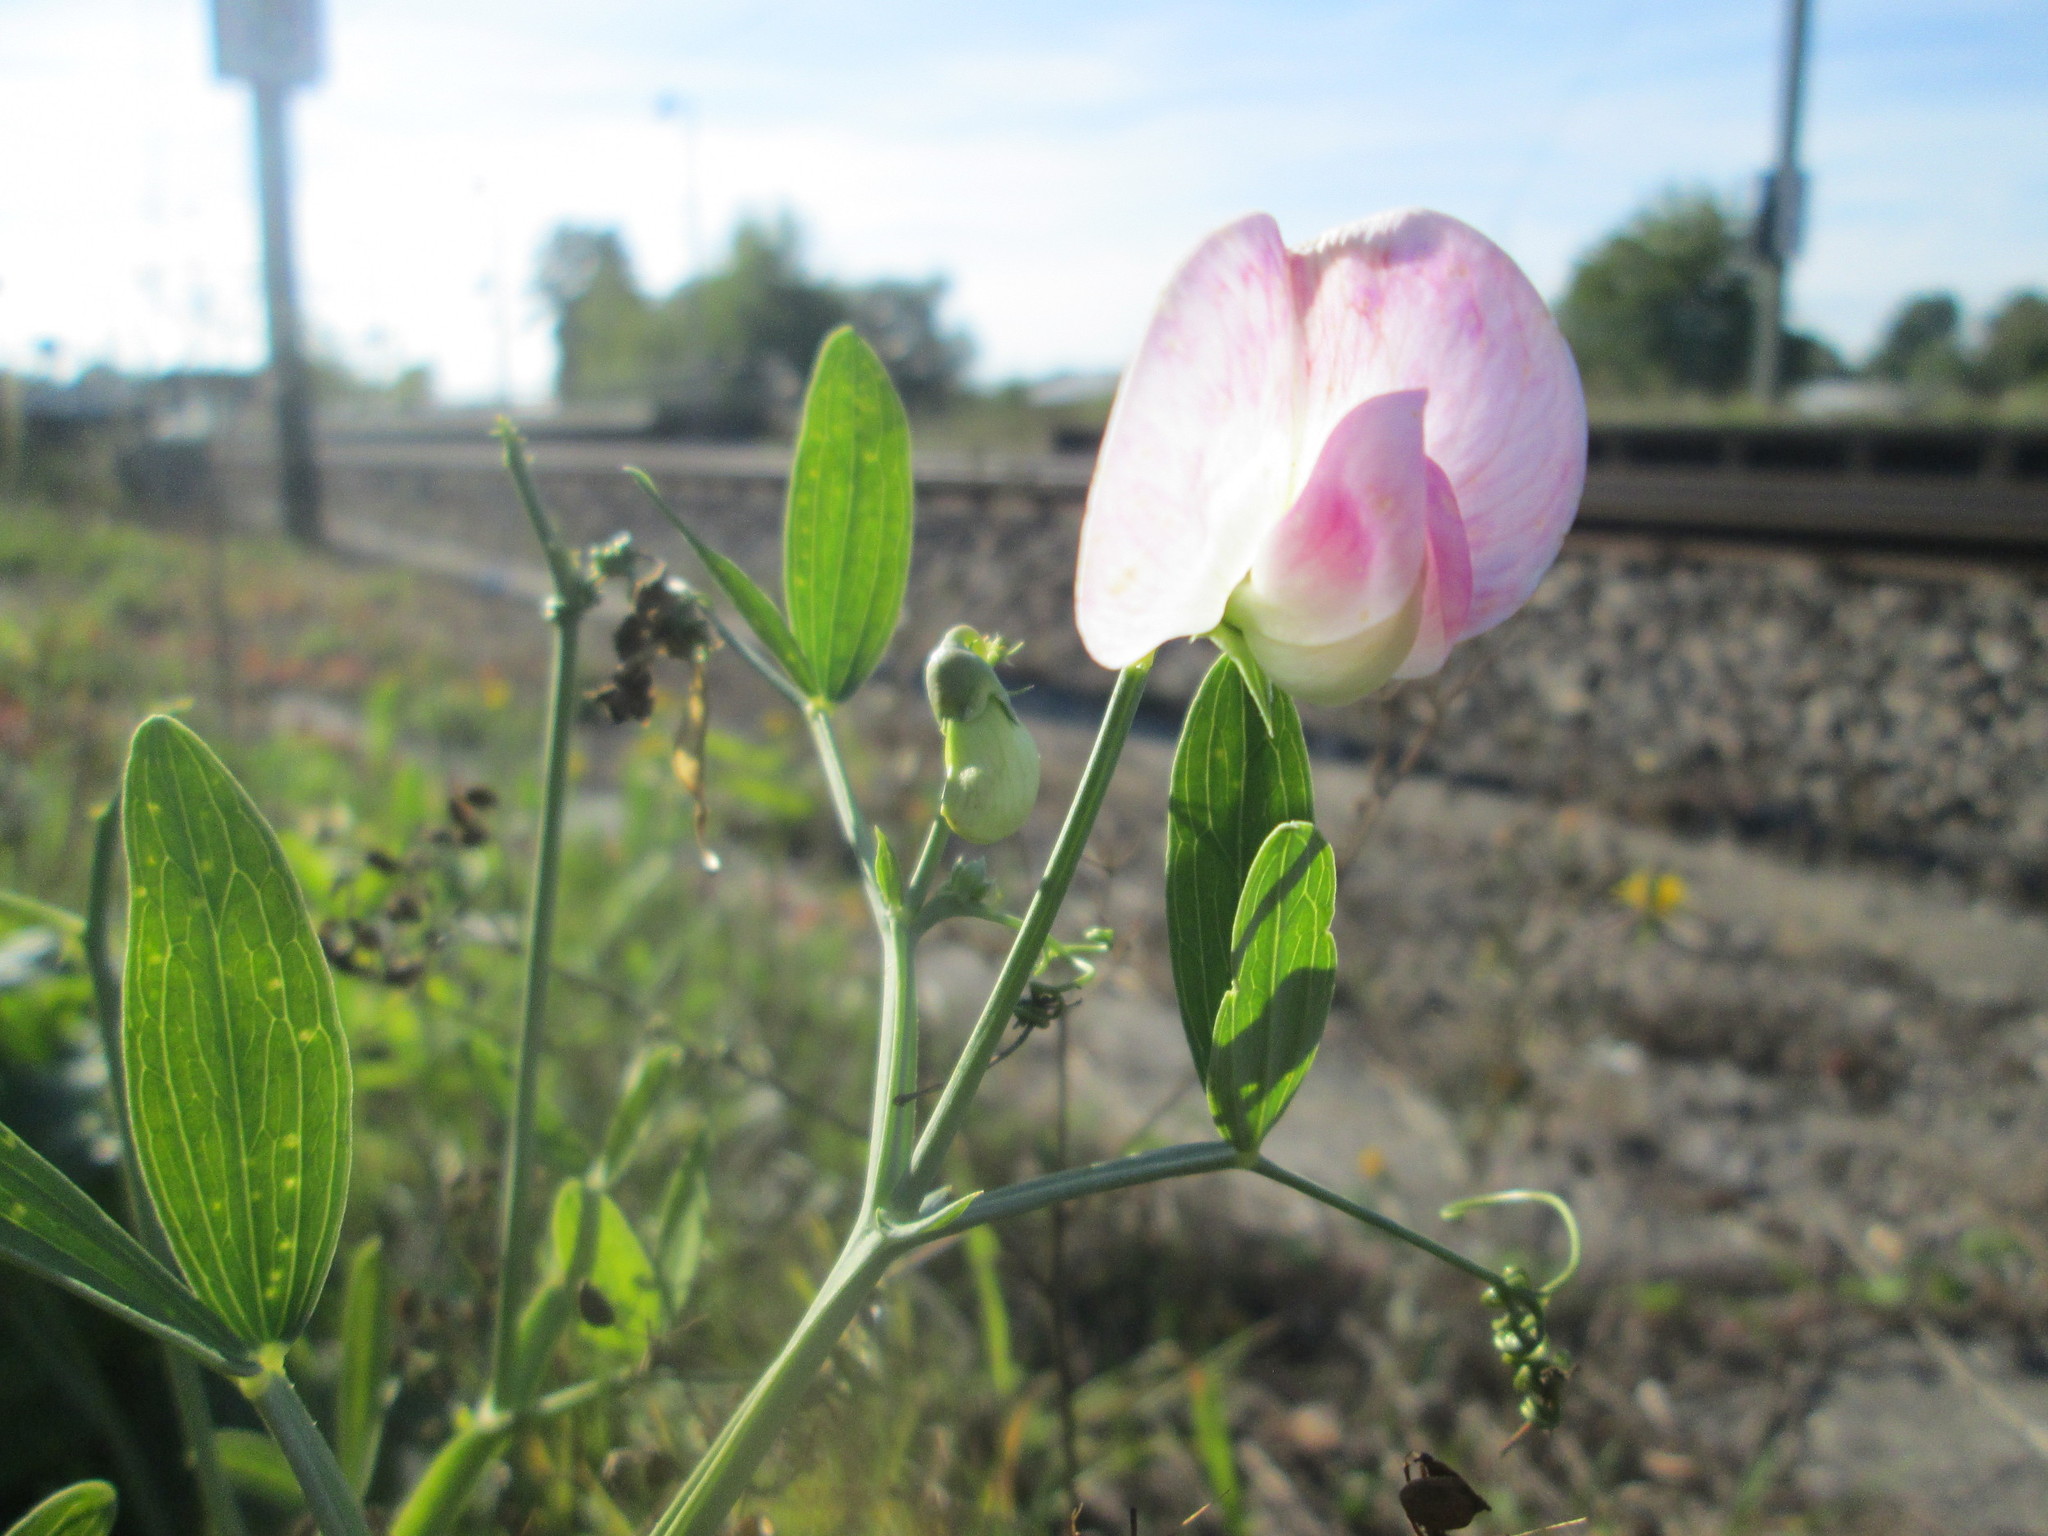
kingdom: Plantae
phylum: Tracheophyta
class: Magnoliopsida
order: Fabales
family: Fabaceae
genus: Lathyrus
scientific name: Lathyrus latifolius
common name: Perennial pea
